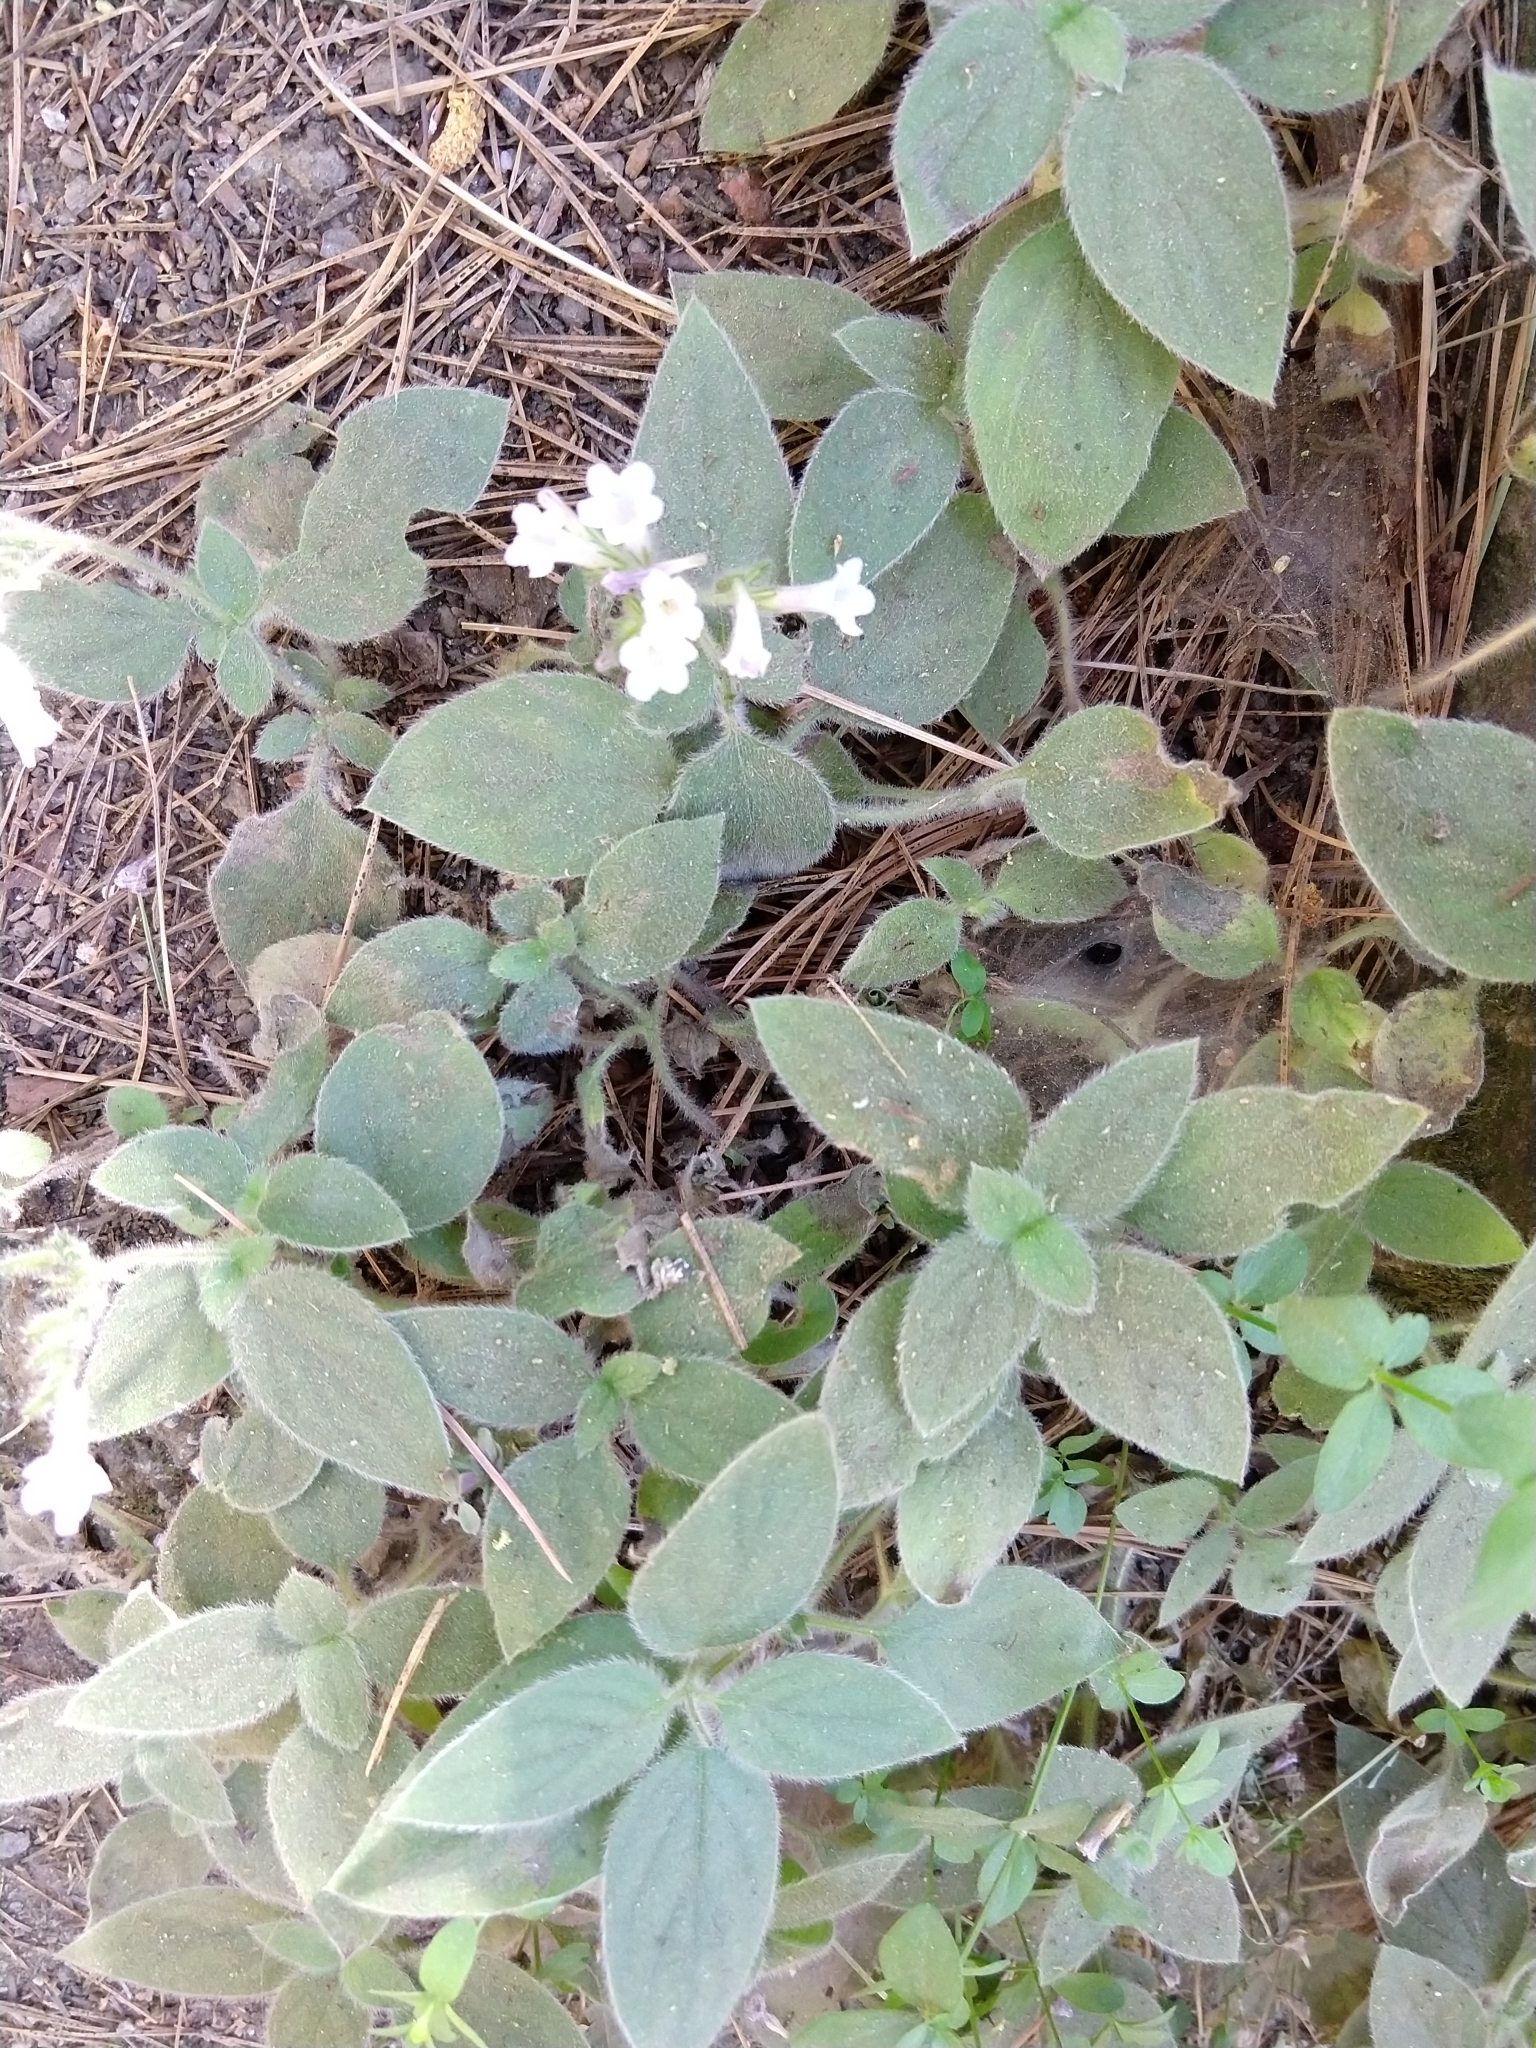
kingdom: Plantae
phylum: Tracheophyta
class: Magnoliopsida
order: Boraginales
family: Hydrophyllaceae
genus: Draperia
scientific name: Draperia systyla
